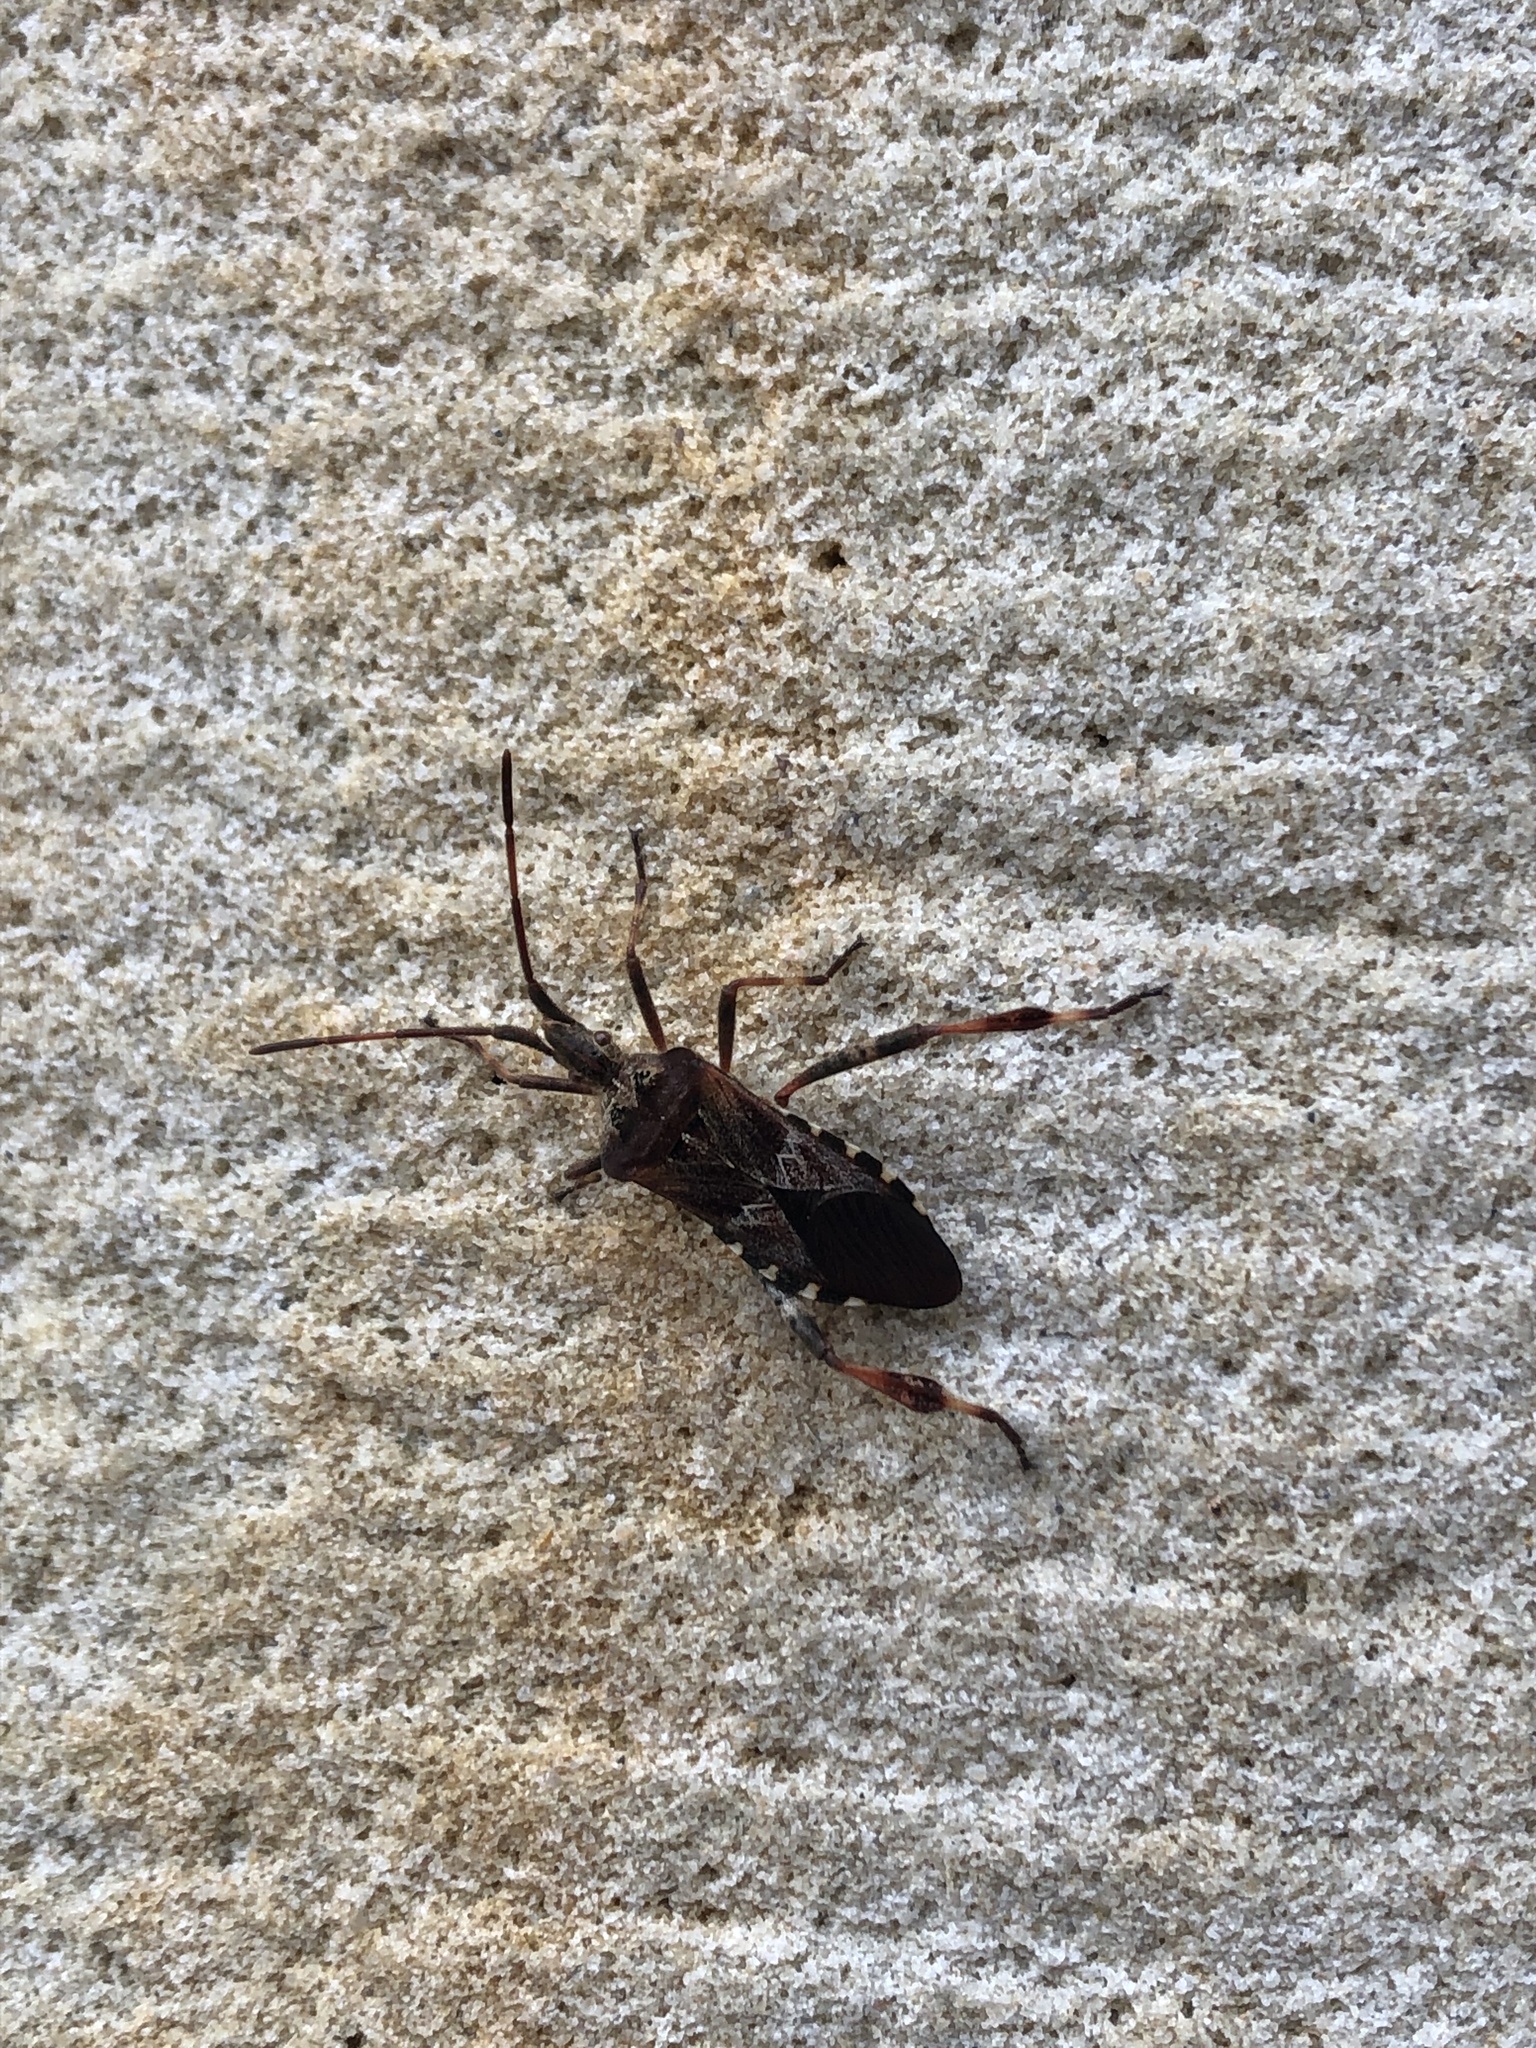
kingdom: Animalia
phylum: Arthropoda
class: Insecta
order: Hemiptera
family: Coreidae
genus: Leptoglossus
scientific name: Leptoglossus occidentalis
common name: Western conifer-seed bug
